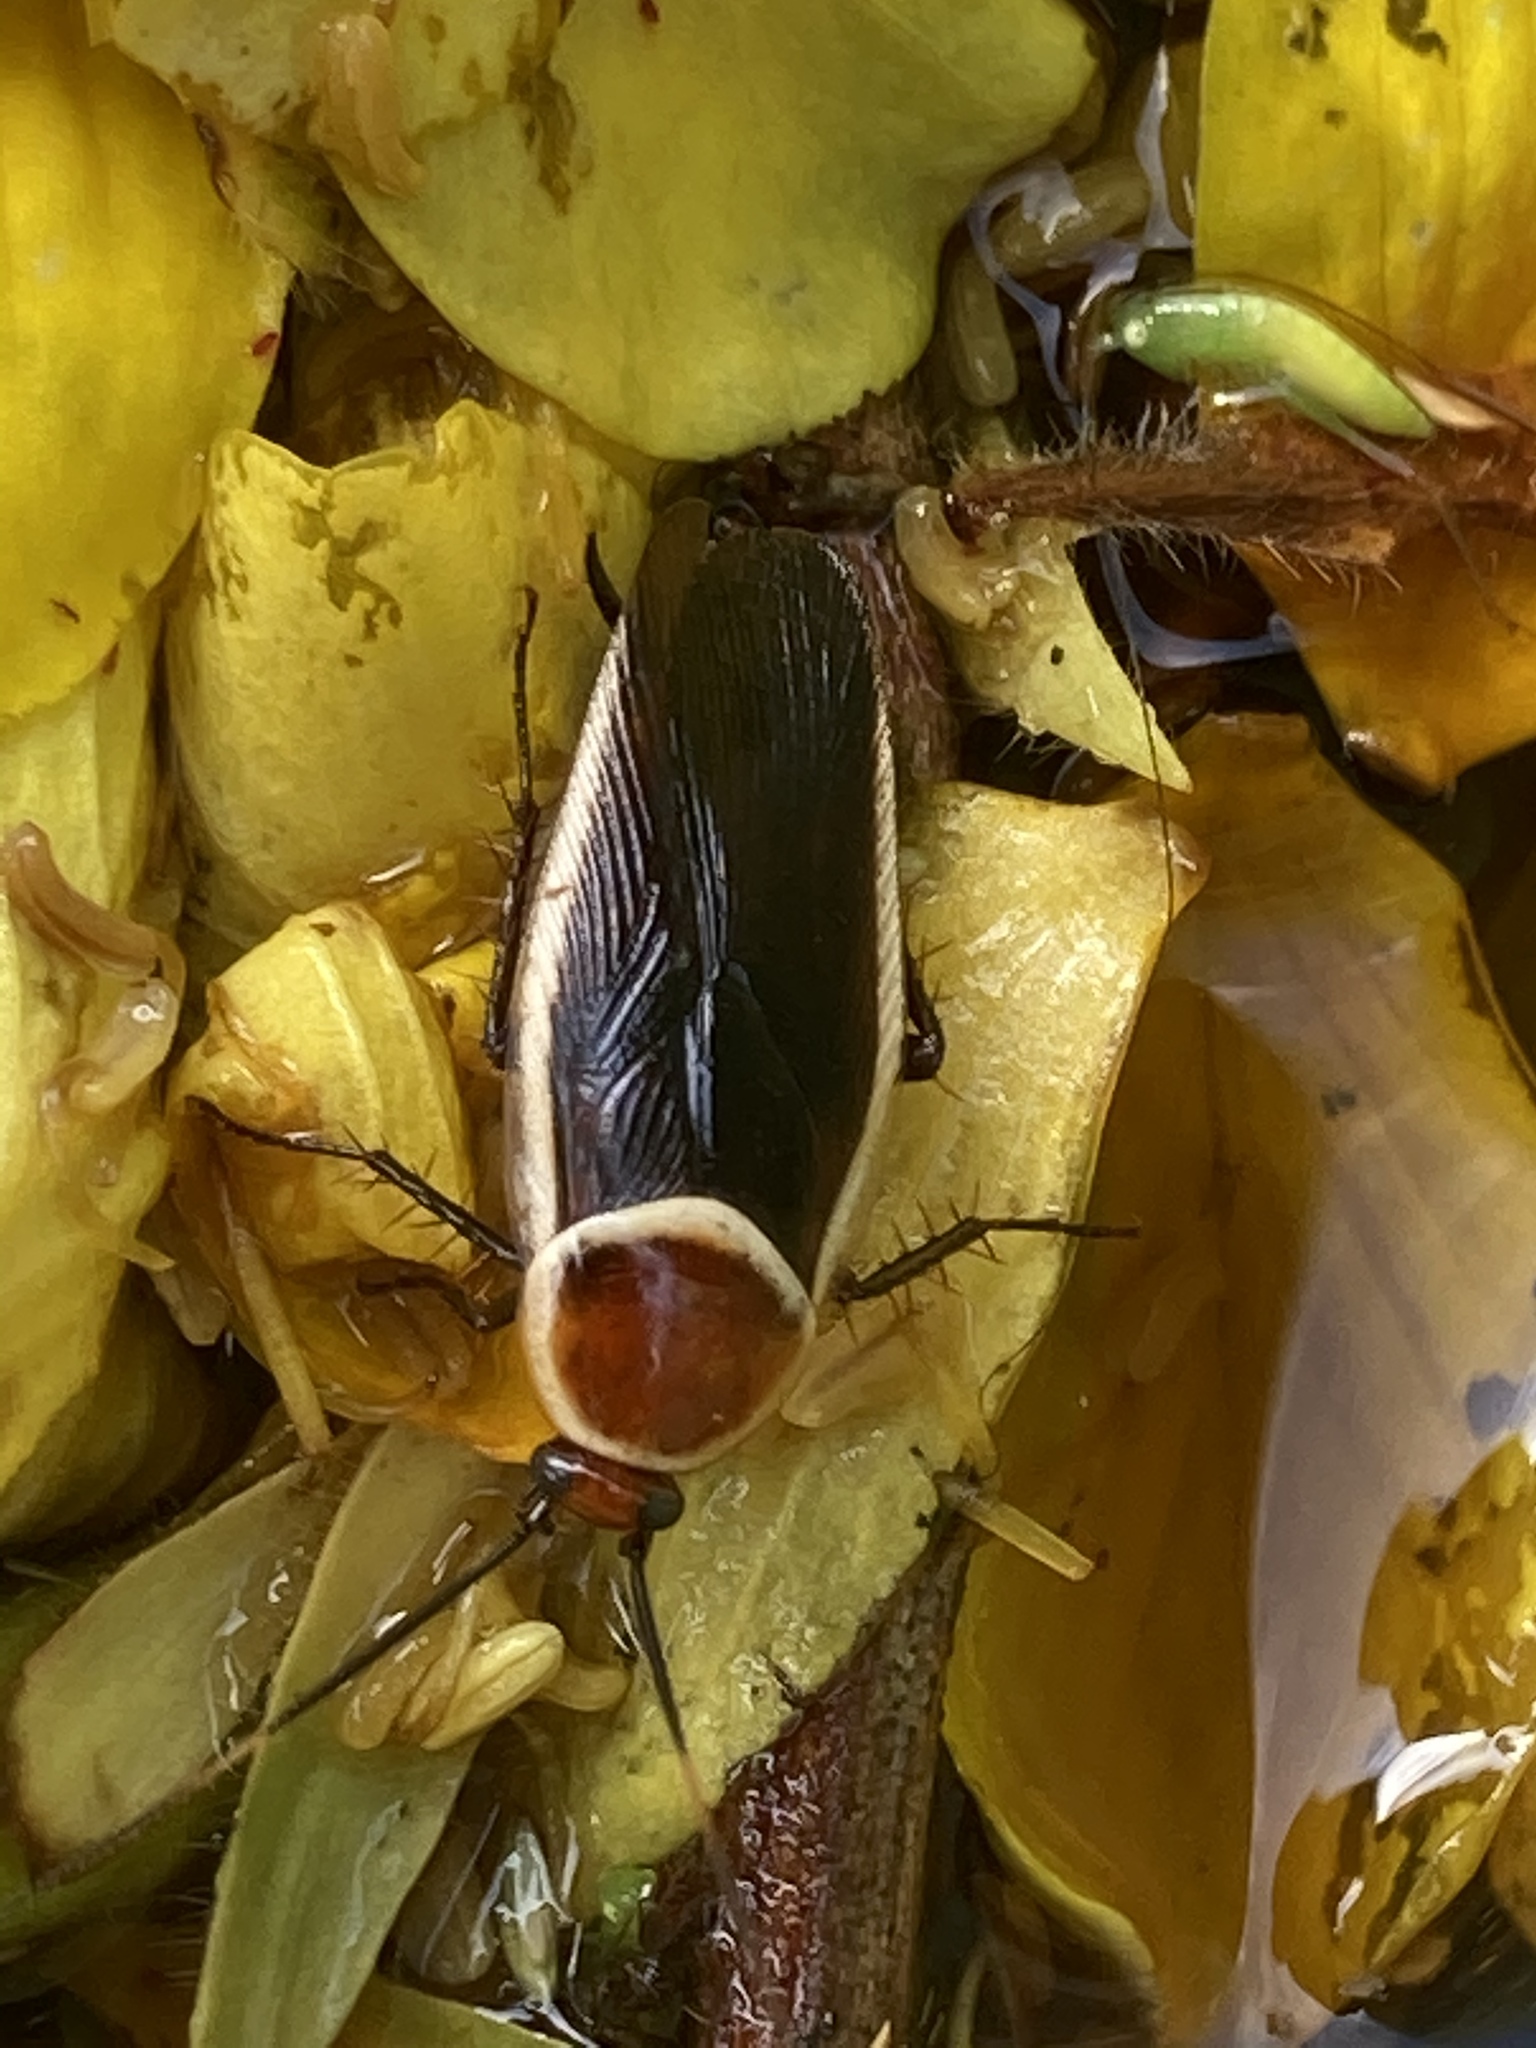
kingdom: Animalia
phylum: Arthropoda
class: Insecta
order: Blattodea
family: Ectobiidae
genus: Pseudomops
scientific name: Pseudomops septentrionalis
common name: Pale-bordered field cockroach
